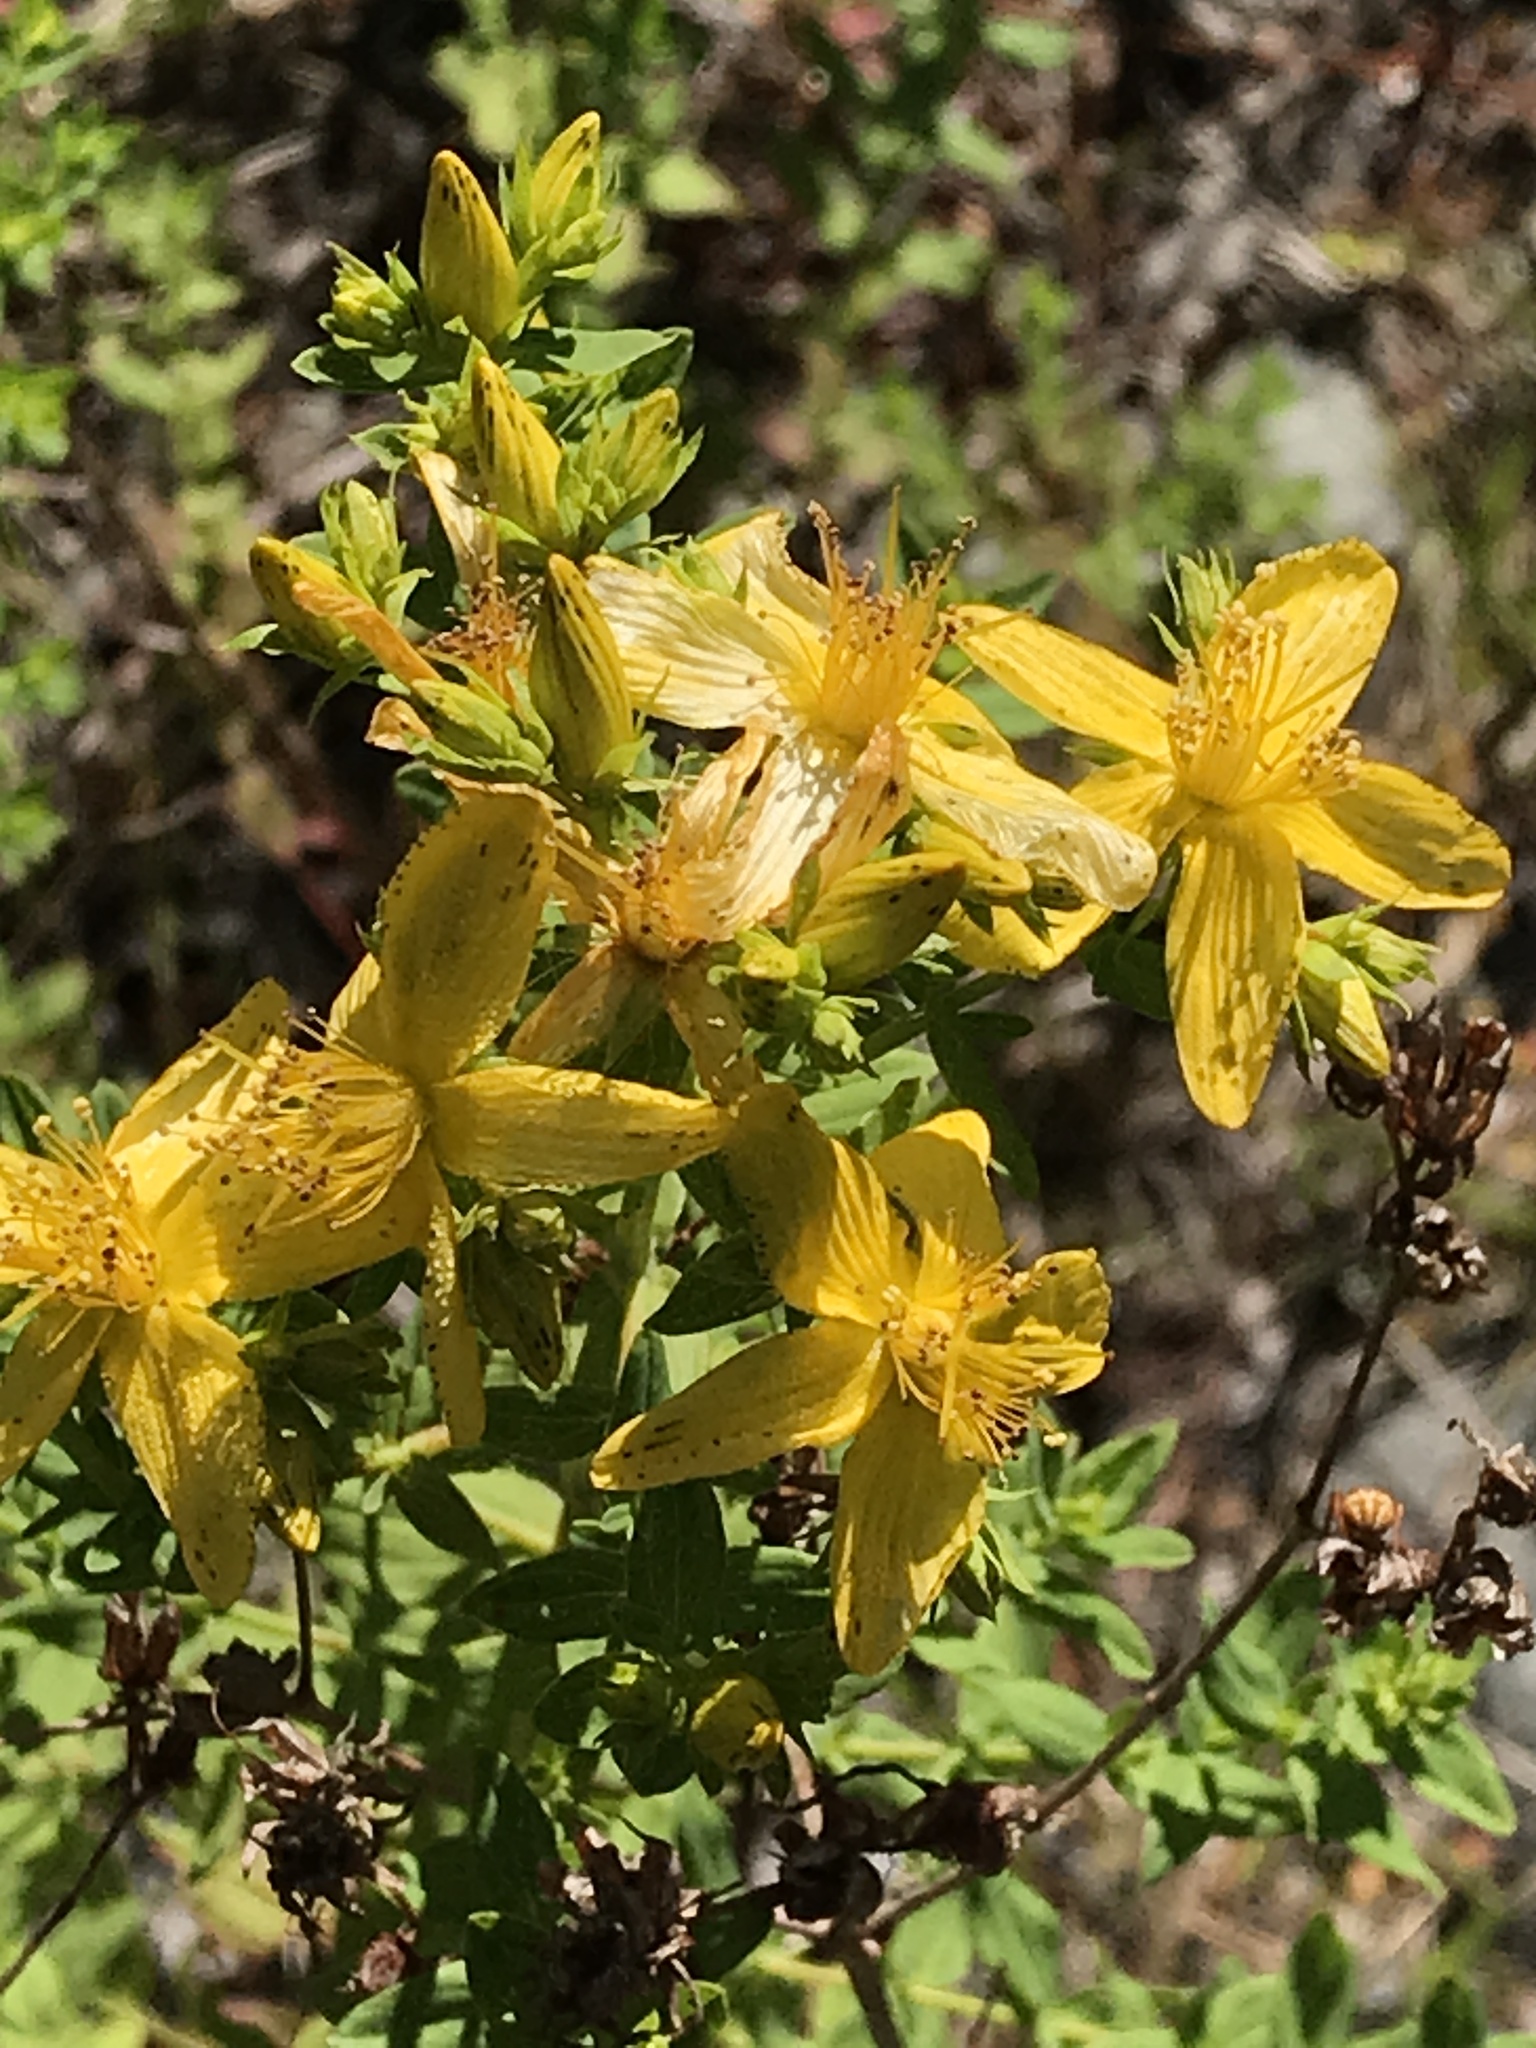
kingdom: Plantae
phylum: Tracheophyta
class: Magnoliopsida
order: Malpighiales
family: Hypericaceae
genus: Hypericum
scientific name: Hypericum perforatum
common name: Common st. johnswort
